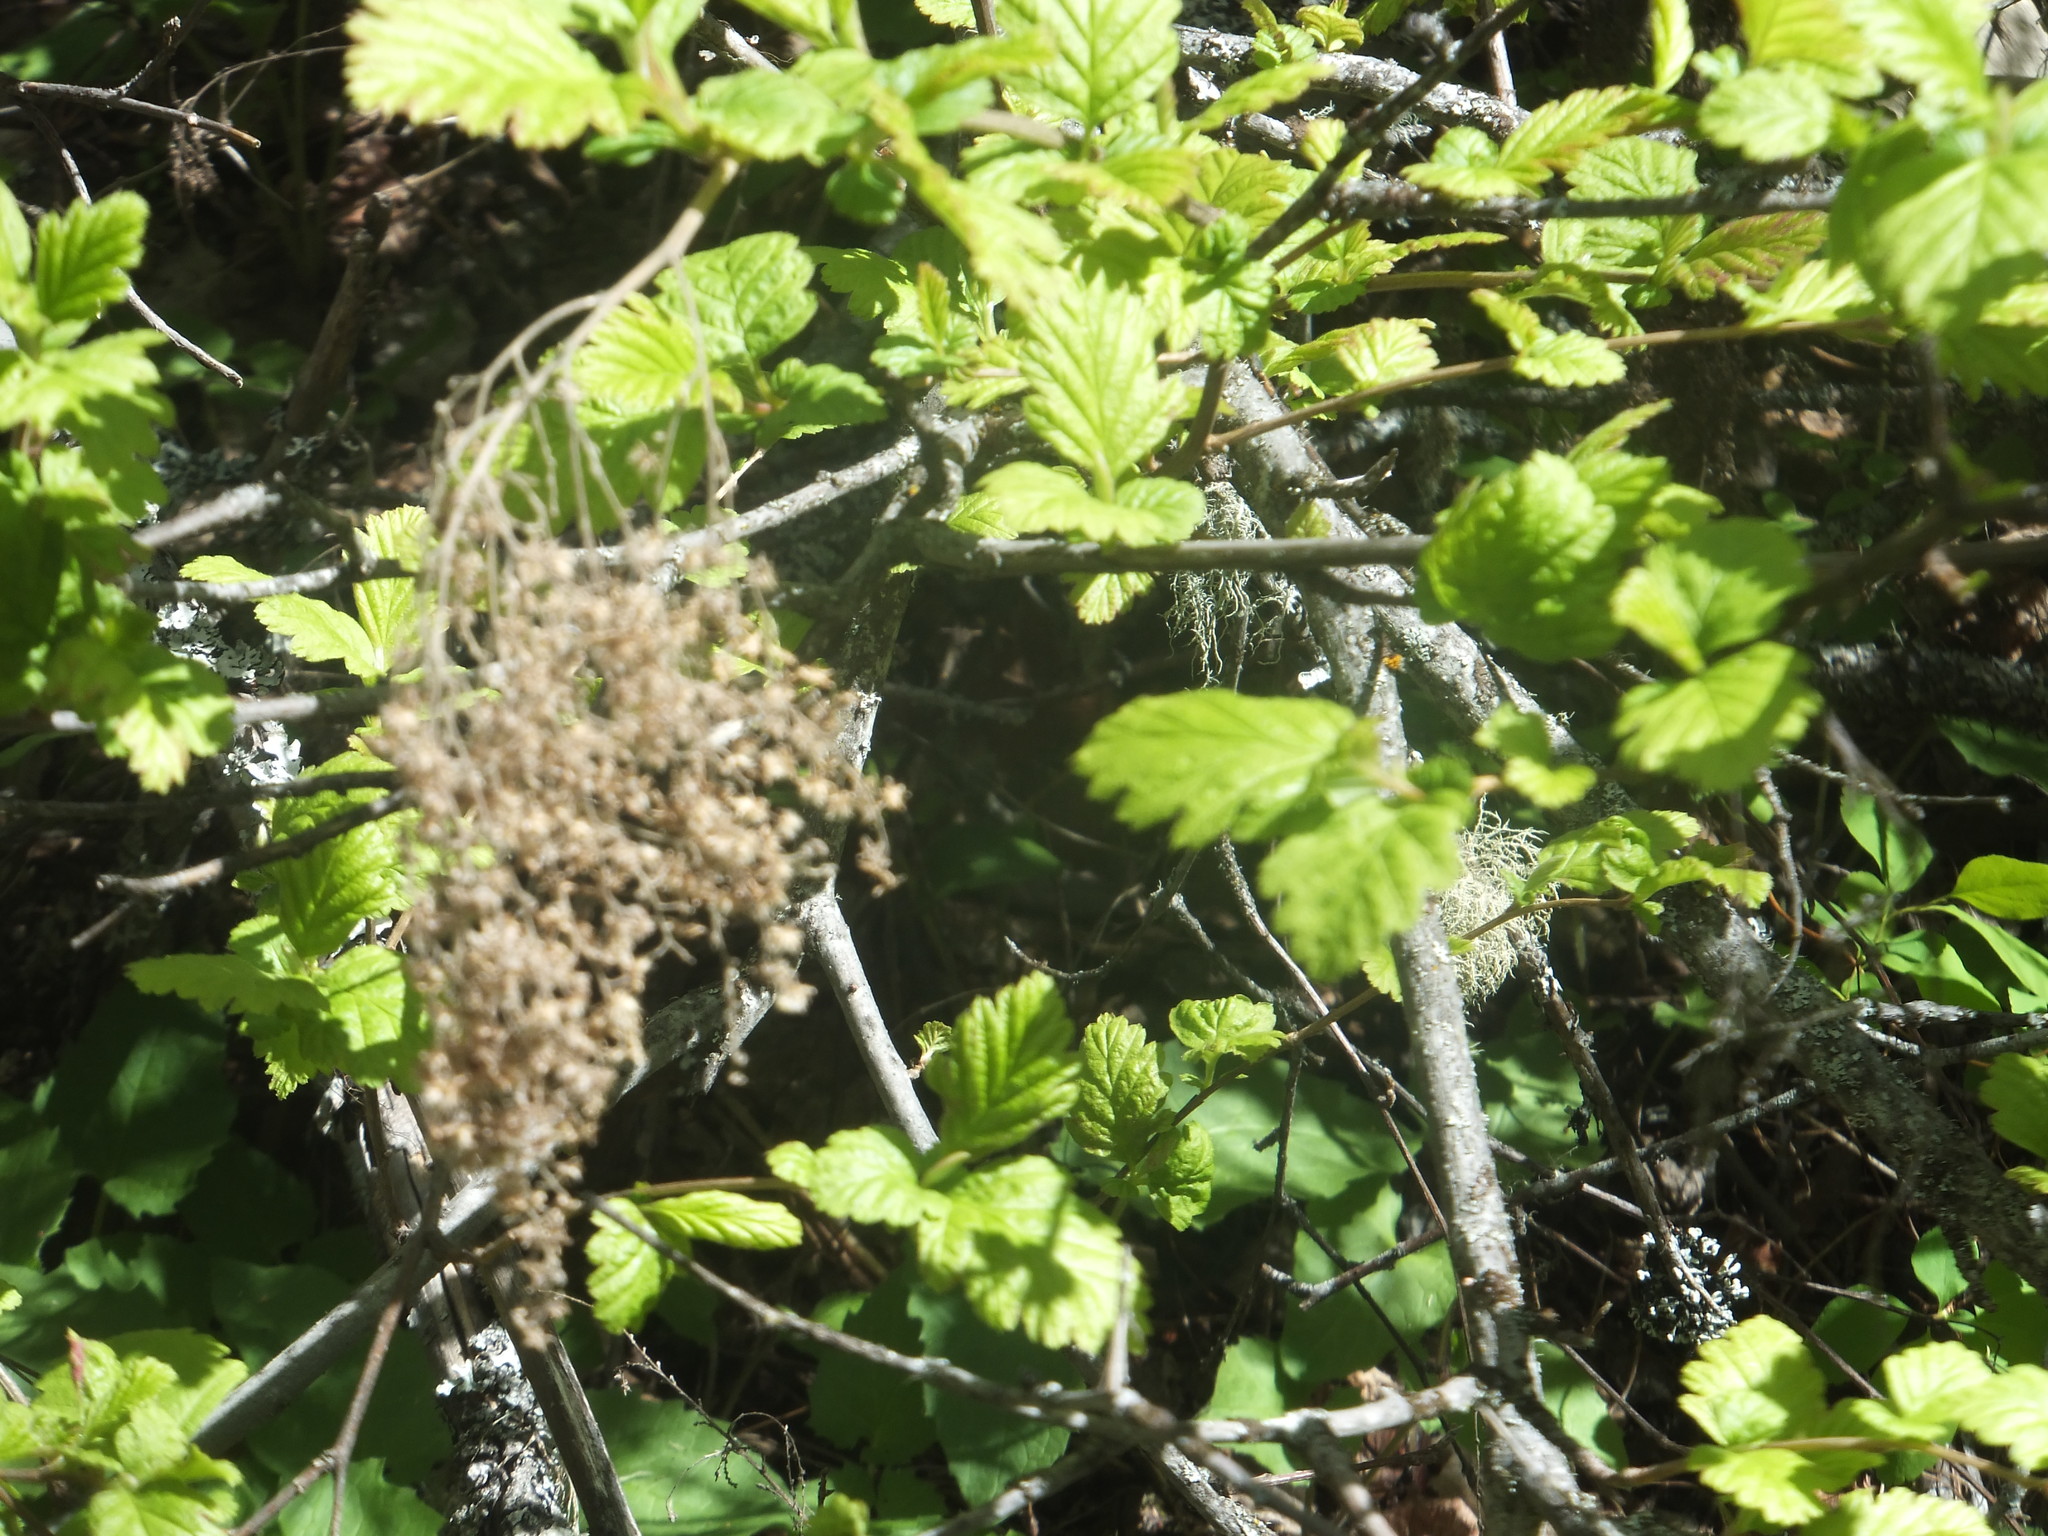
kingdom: Plantae
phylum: Tracheophyta
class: Magnoliopsida
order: Rosales
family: Rosaceae
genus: Holodiscus
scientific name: Holodiscus discolor
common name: Oceanspray
